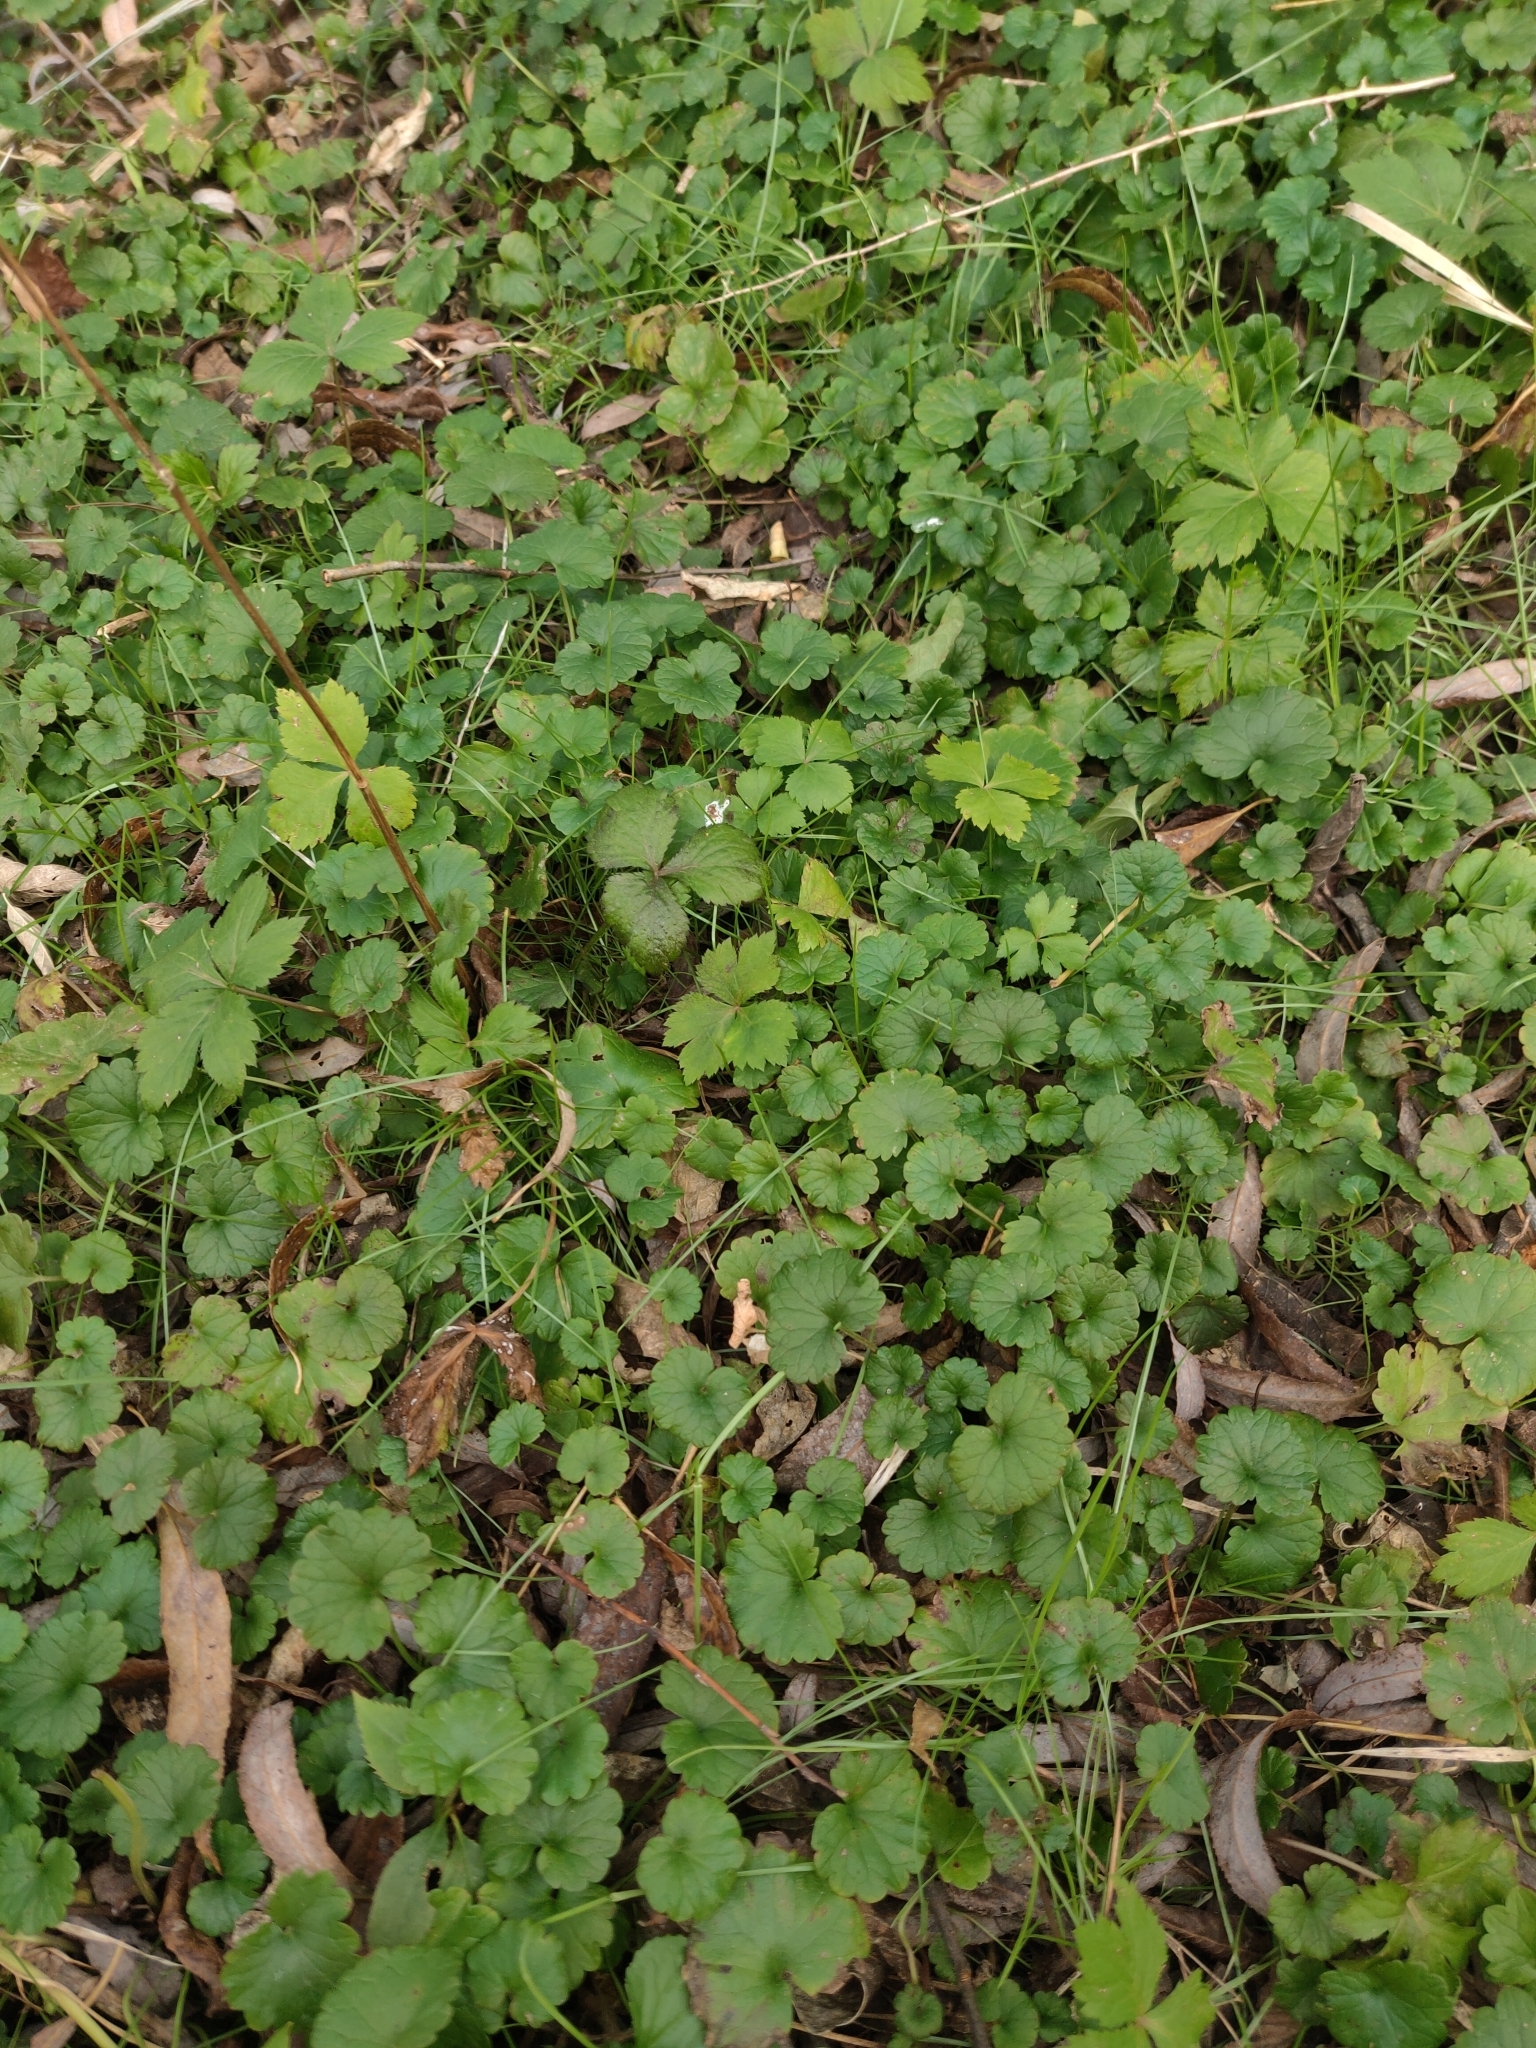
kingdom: Plantae
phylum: Tracheophyta
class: Magnoliopsida
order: Lamiales
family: Lamiaceae
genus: Glechoma
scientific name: Glechoma hederacea
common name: Ground ivy
